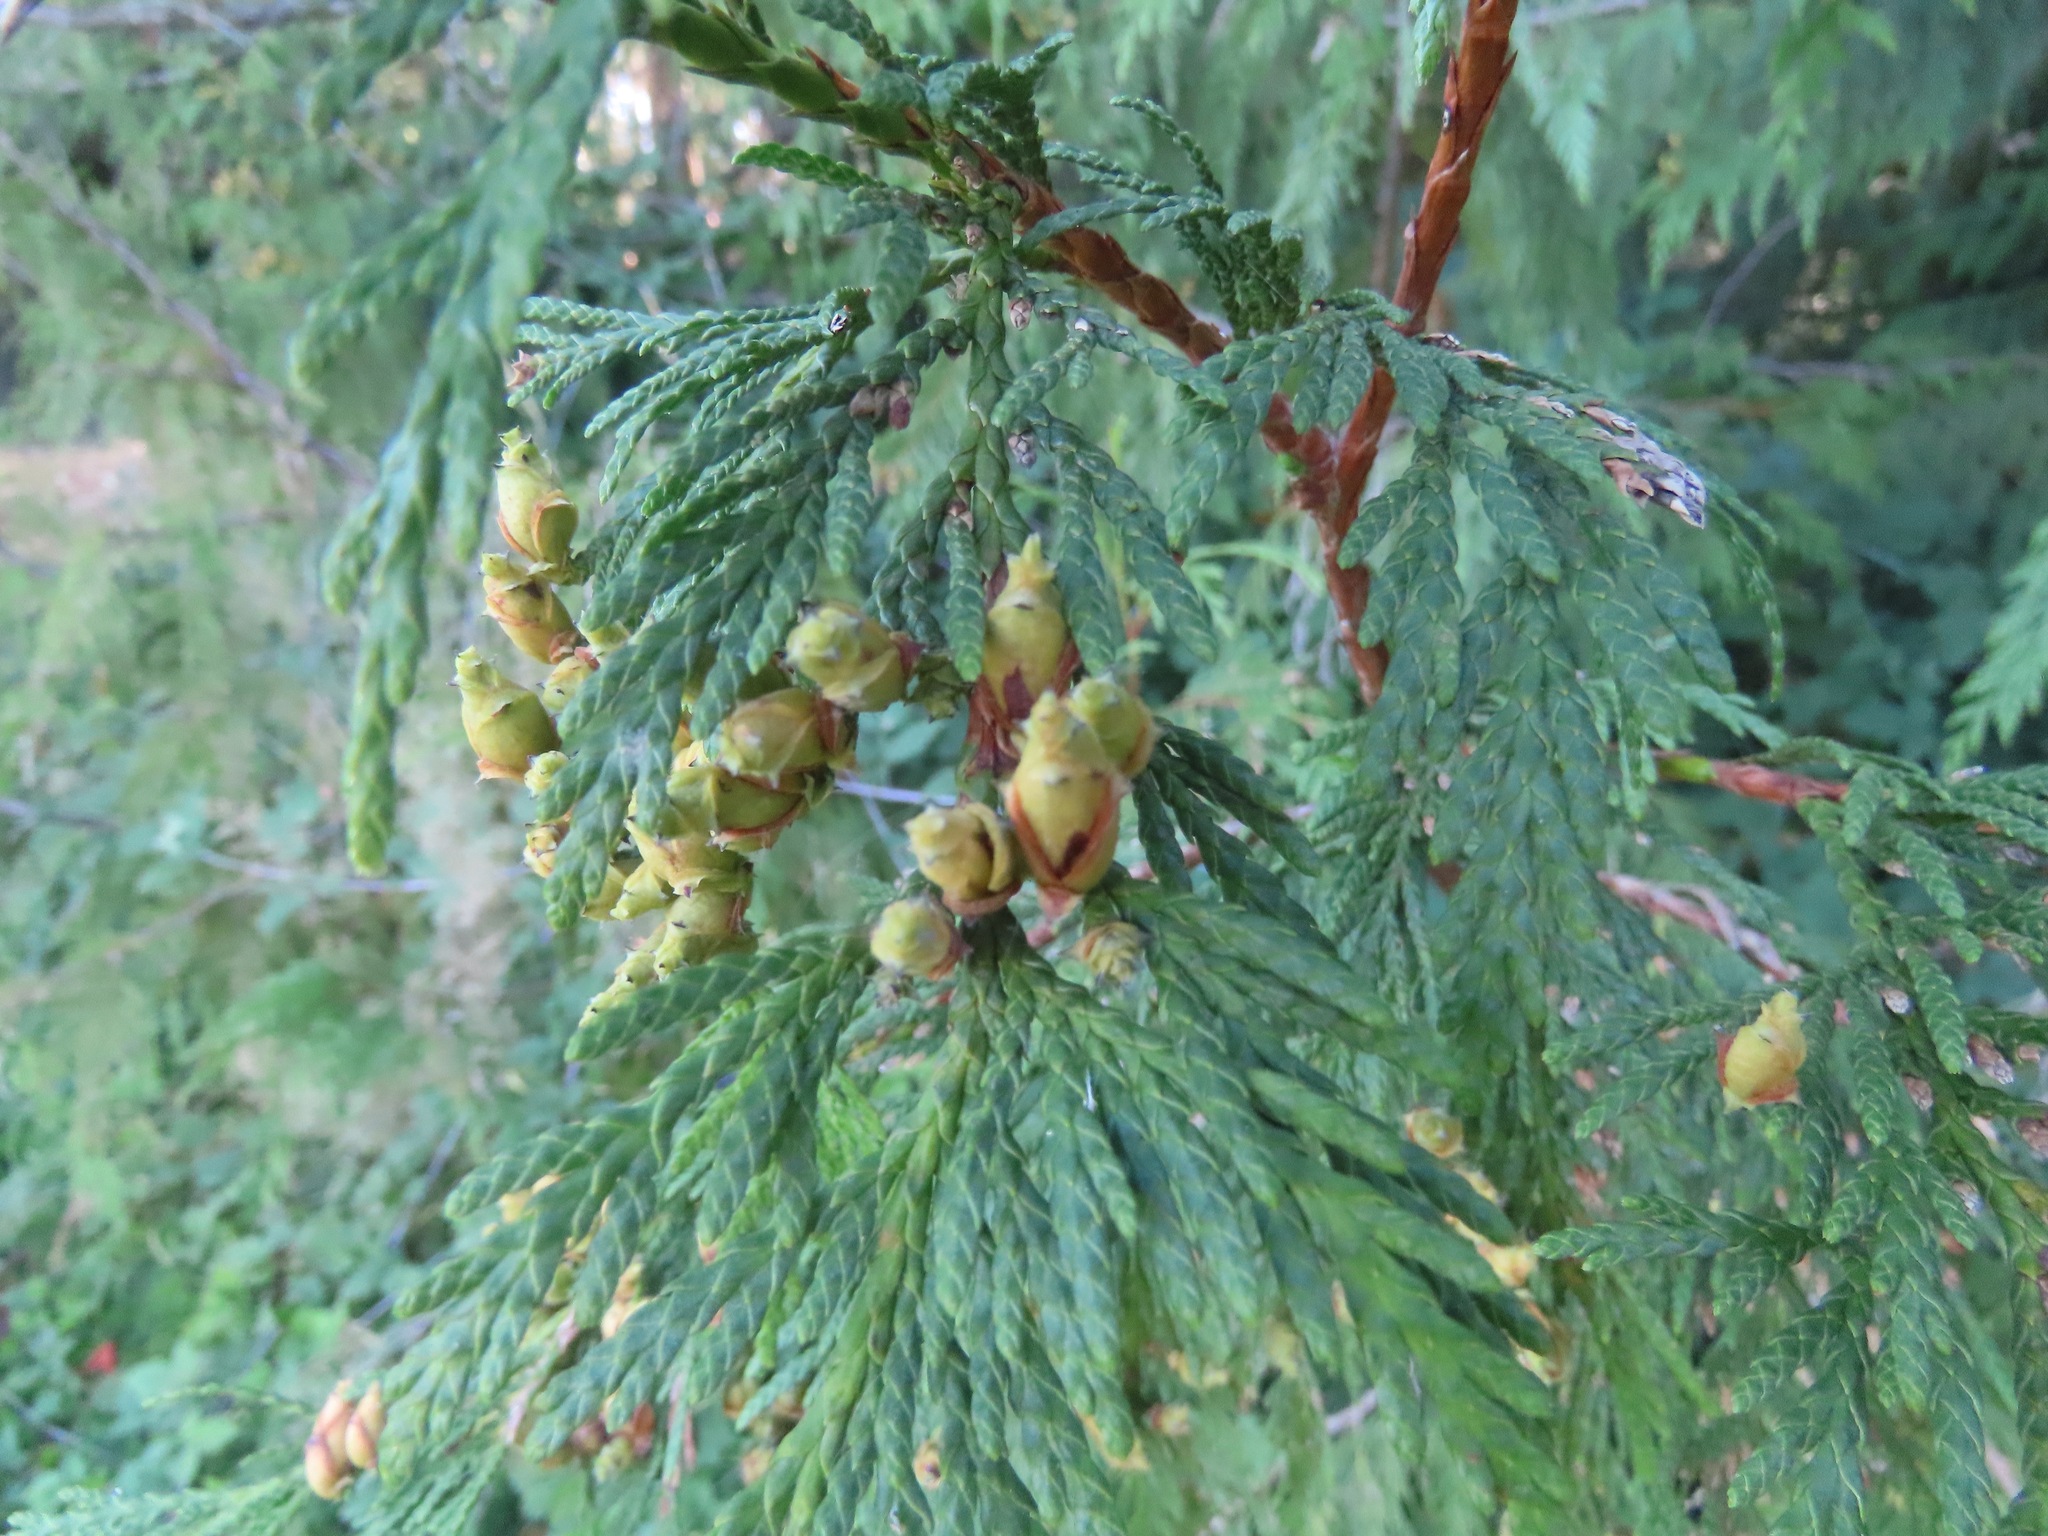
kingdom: Plantae
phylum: Tracheophyta
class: Pinopsida
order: Pinales
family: Cupressaceae
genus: Thuja
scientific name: Thuja plicata
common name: Western red-cedar
